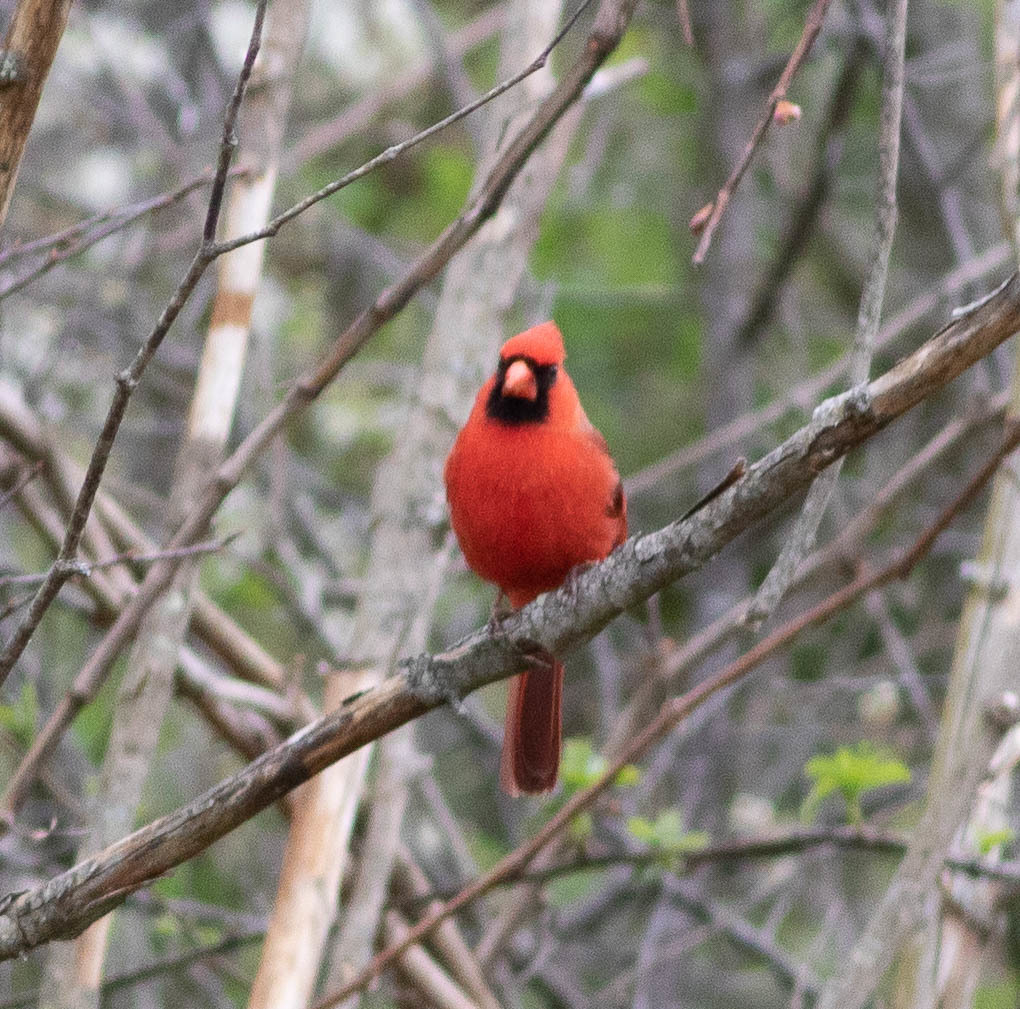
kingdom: Animalia
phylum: Chordata
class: Aves
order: Passeriformes
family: Cardinalidae
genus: Cardinalis
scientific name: Cardinalis cardinalis
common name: Northern cardinal
